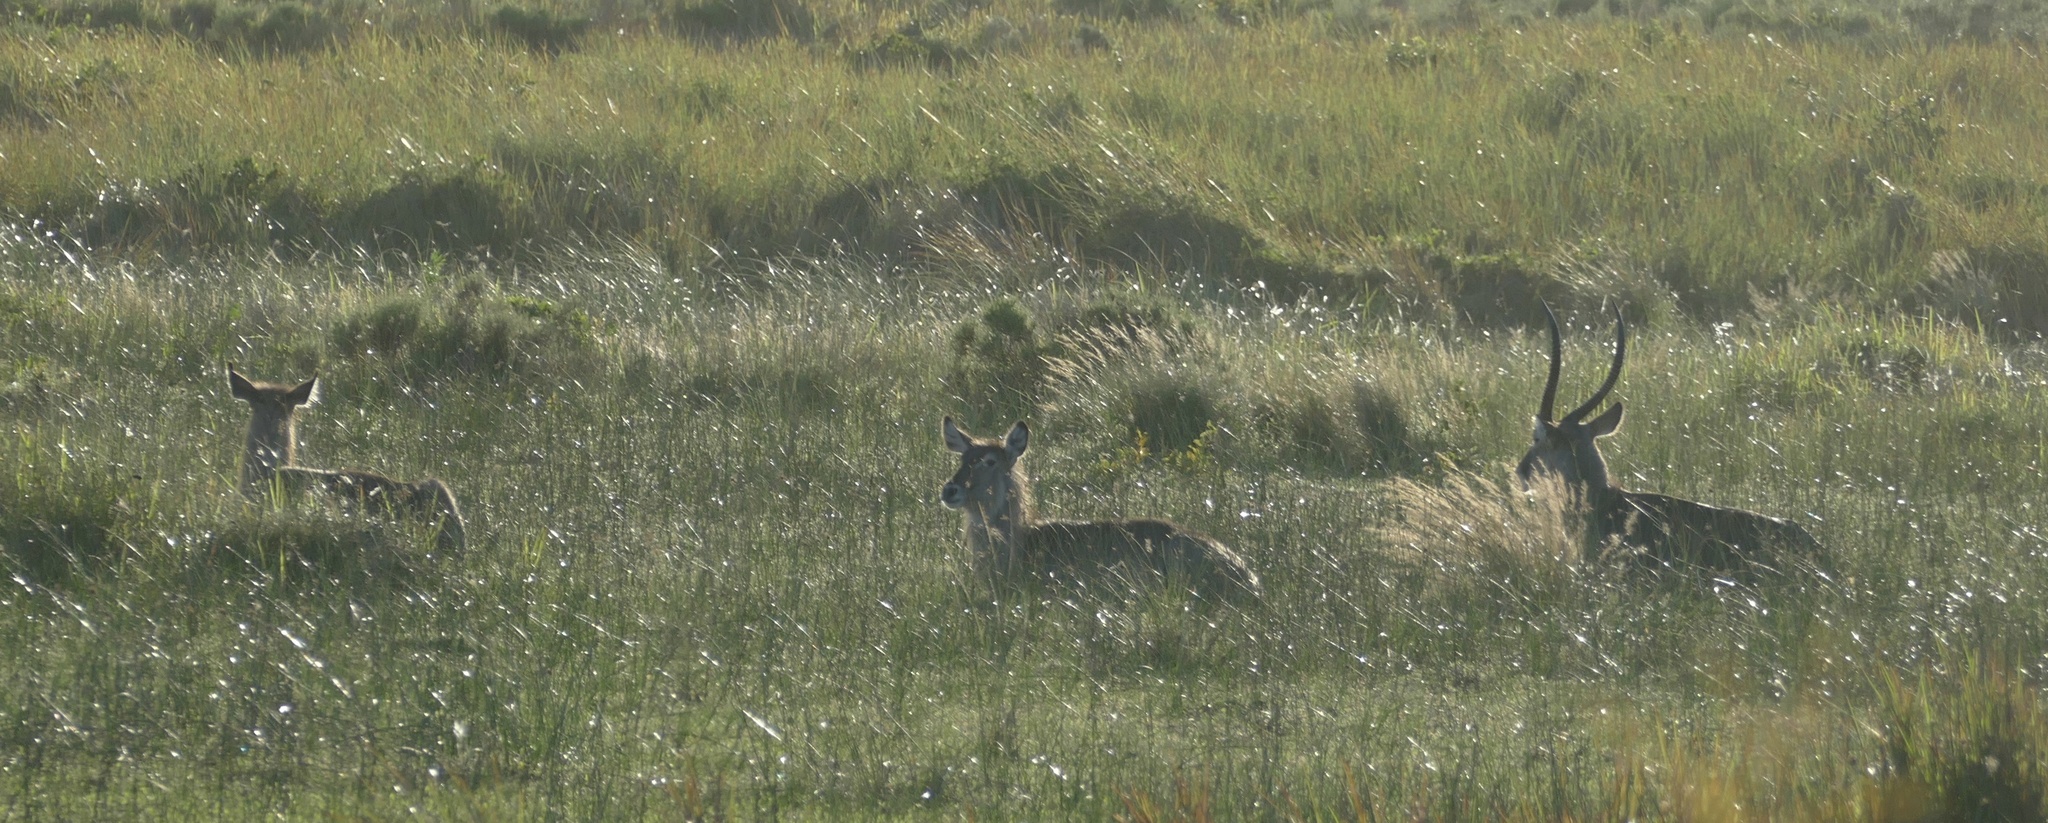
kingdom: Animalia
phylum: Chordata
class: Mammalia
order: Artiodactyla
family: Bovidae
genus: Kobus
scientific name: Kobus ellipsiprymnus
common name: Waterbuck
